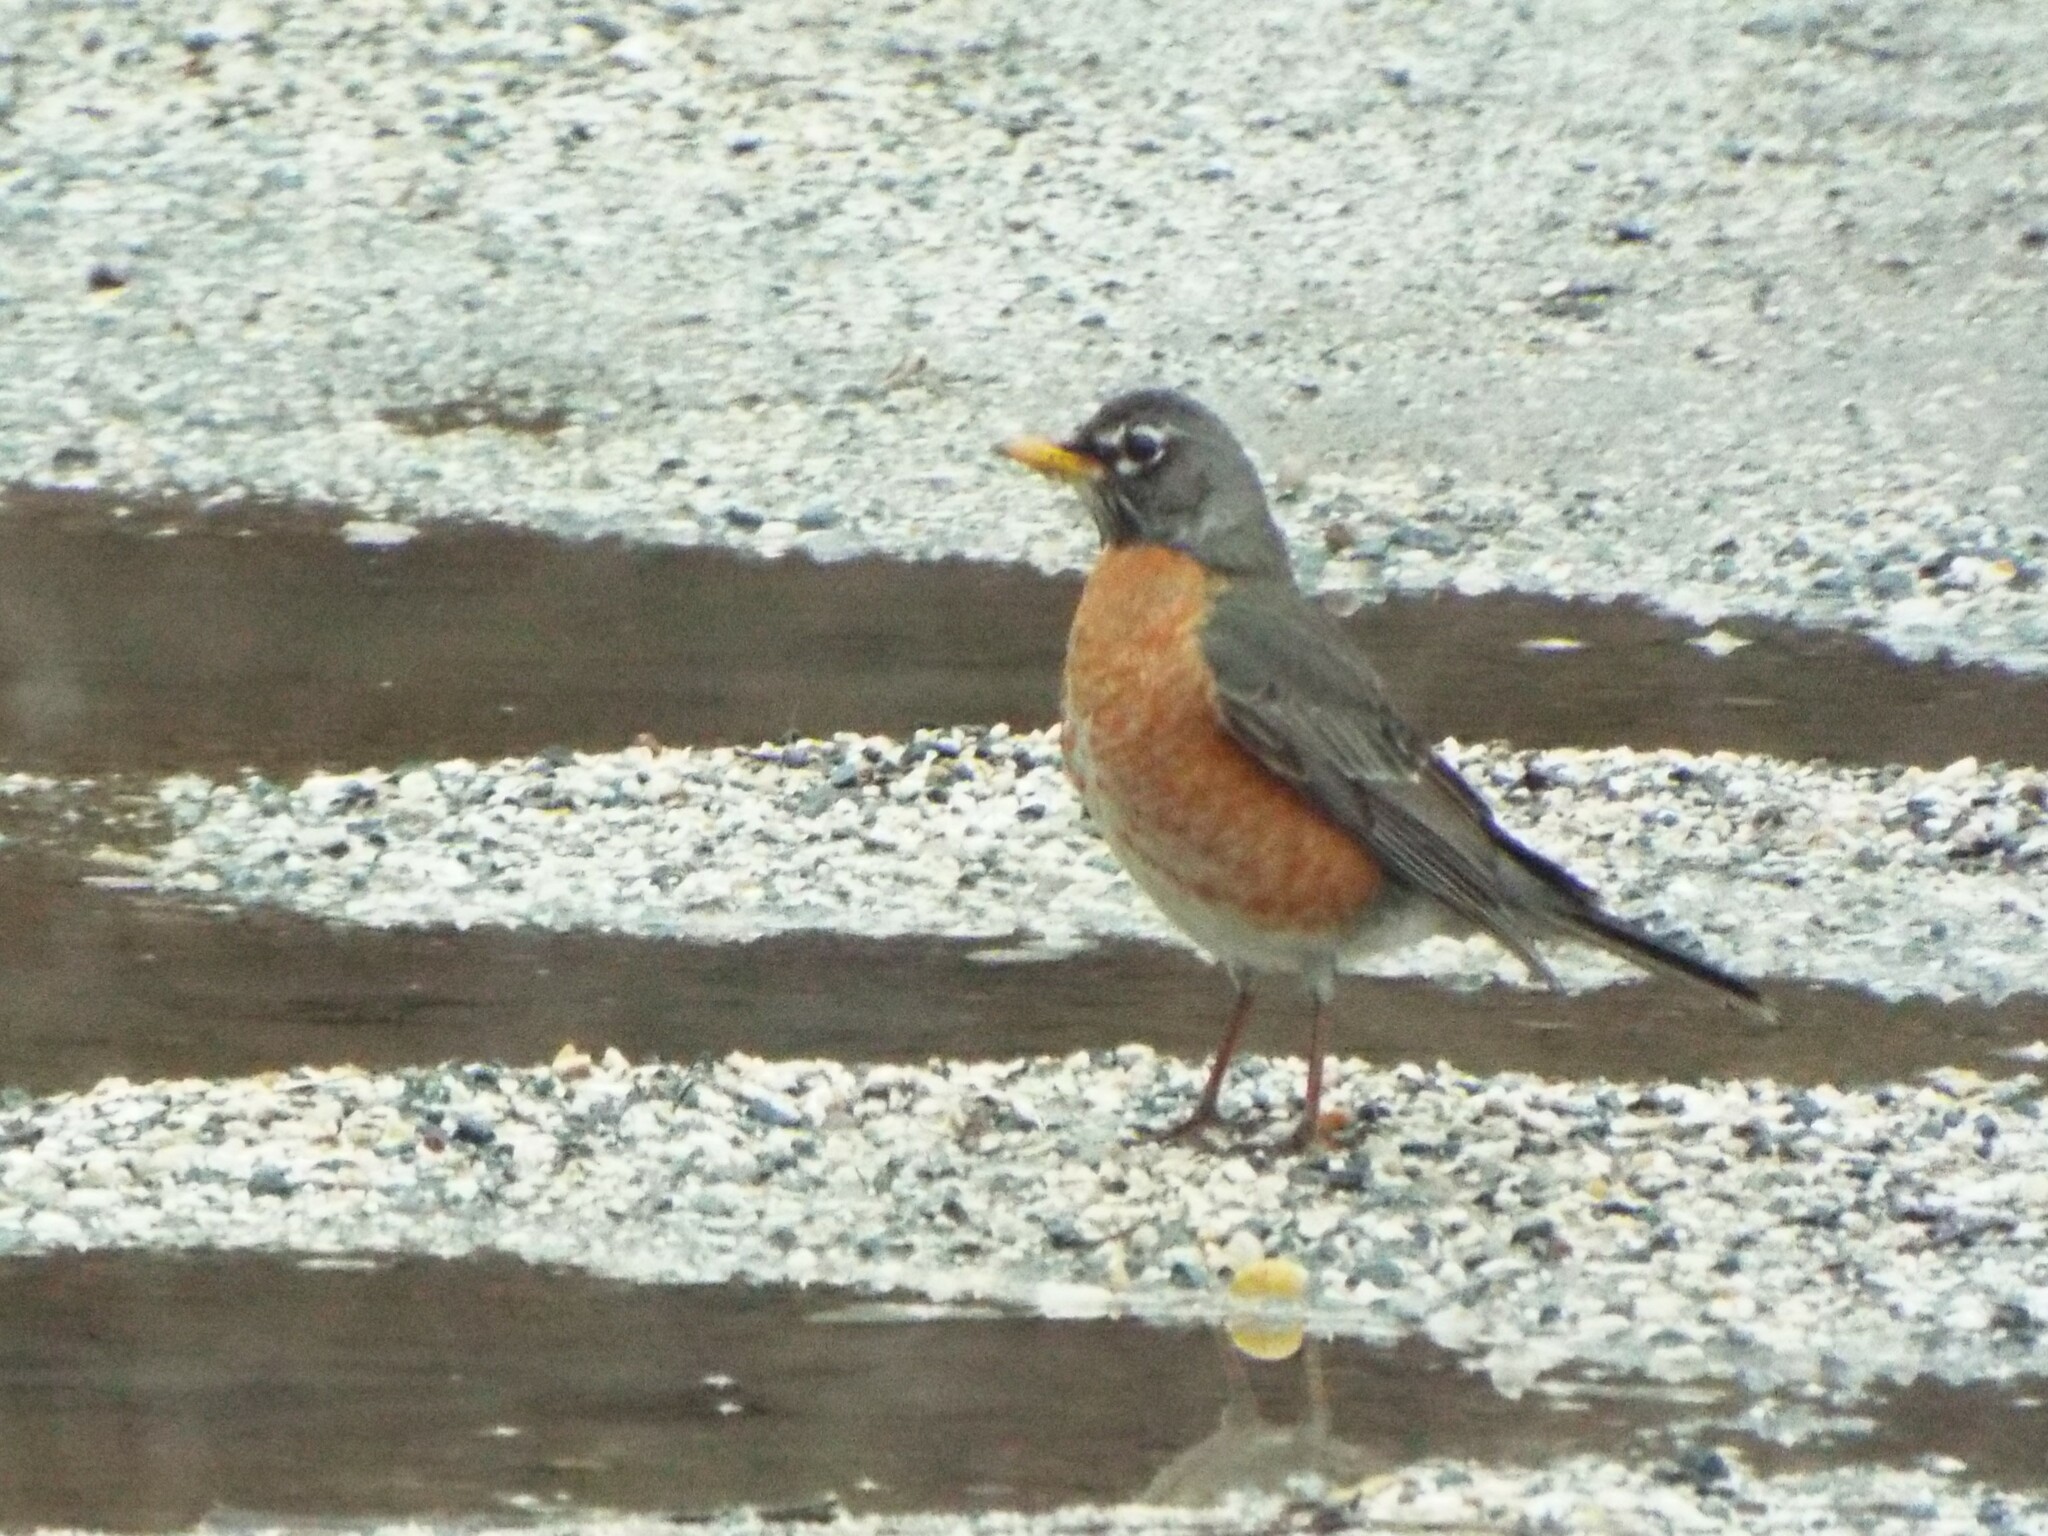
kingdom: Animalia
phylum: Chordata
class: Aves
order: Passeriformes
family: Turdidae
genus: Turdus
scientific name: Turdus migratorius
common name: American robin
